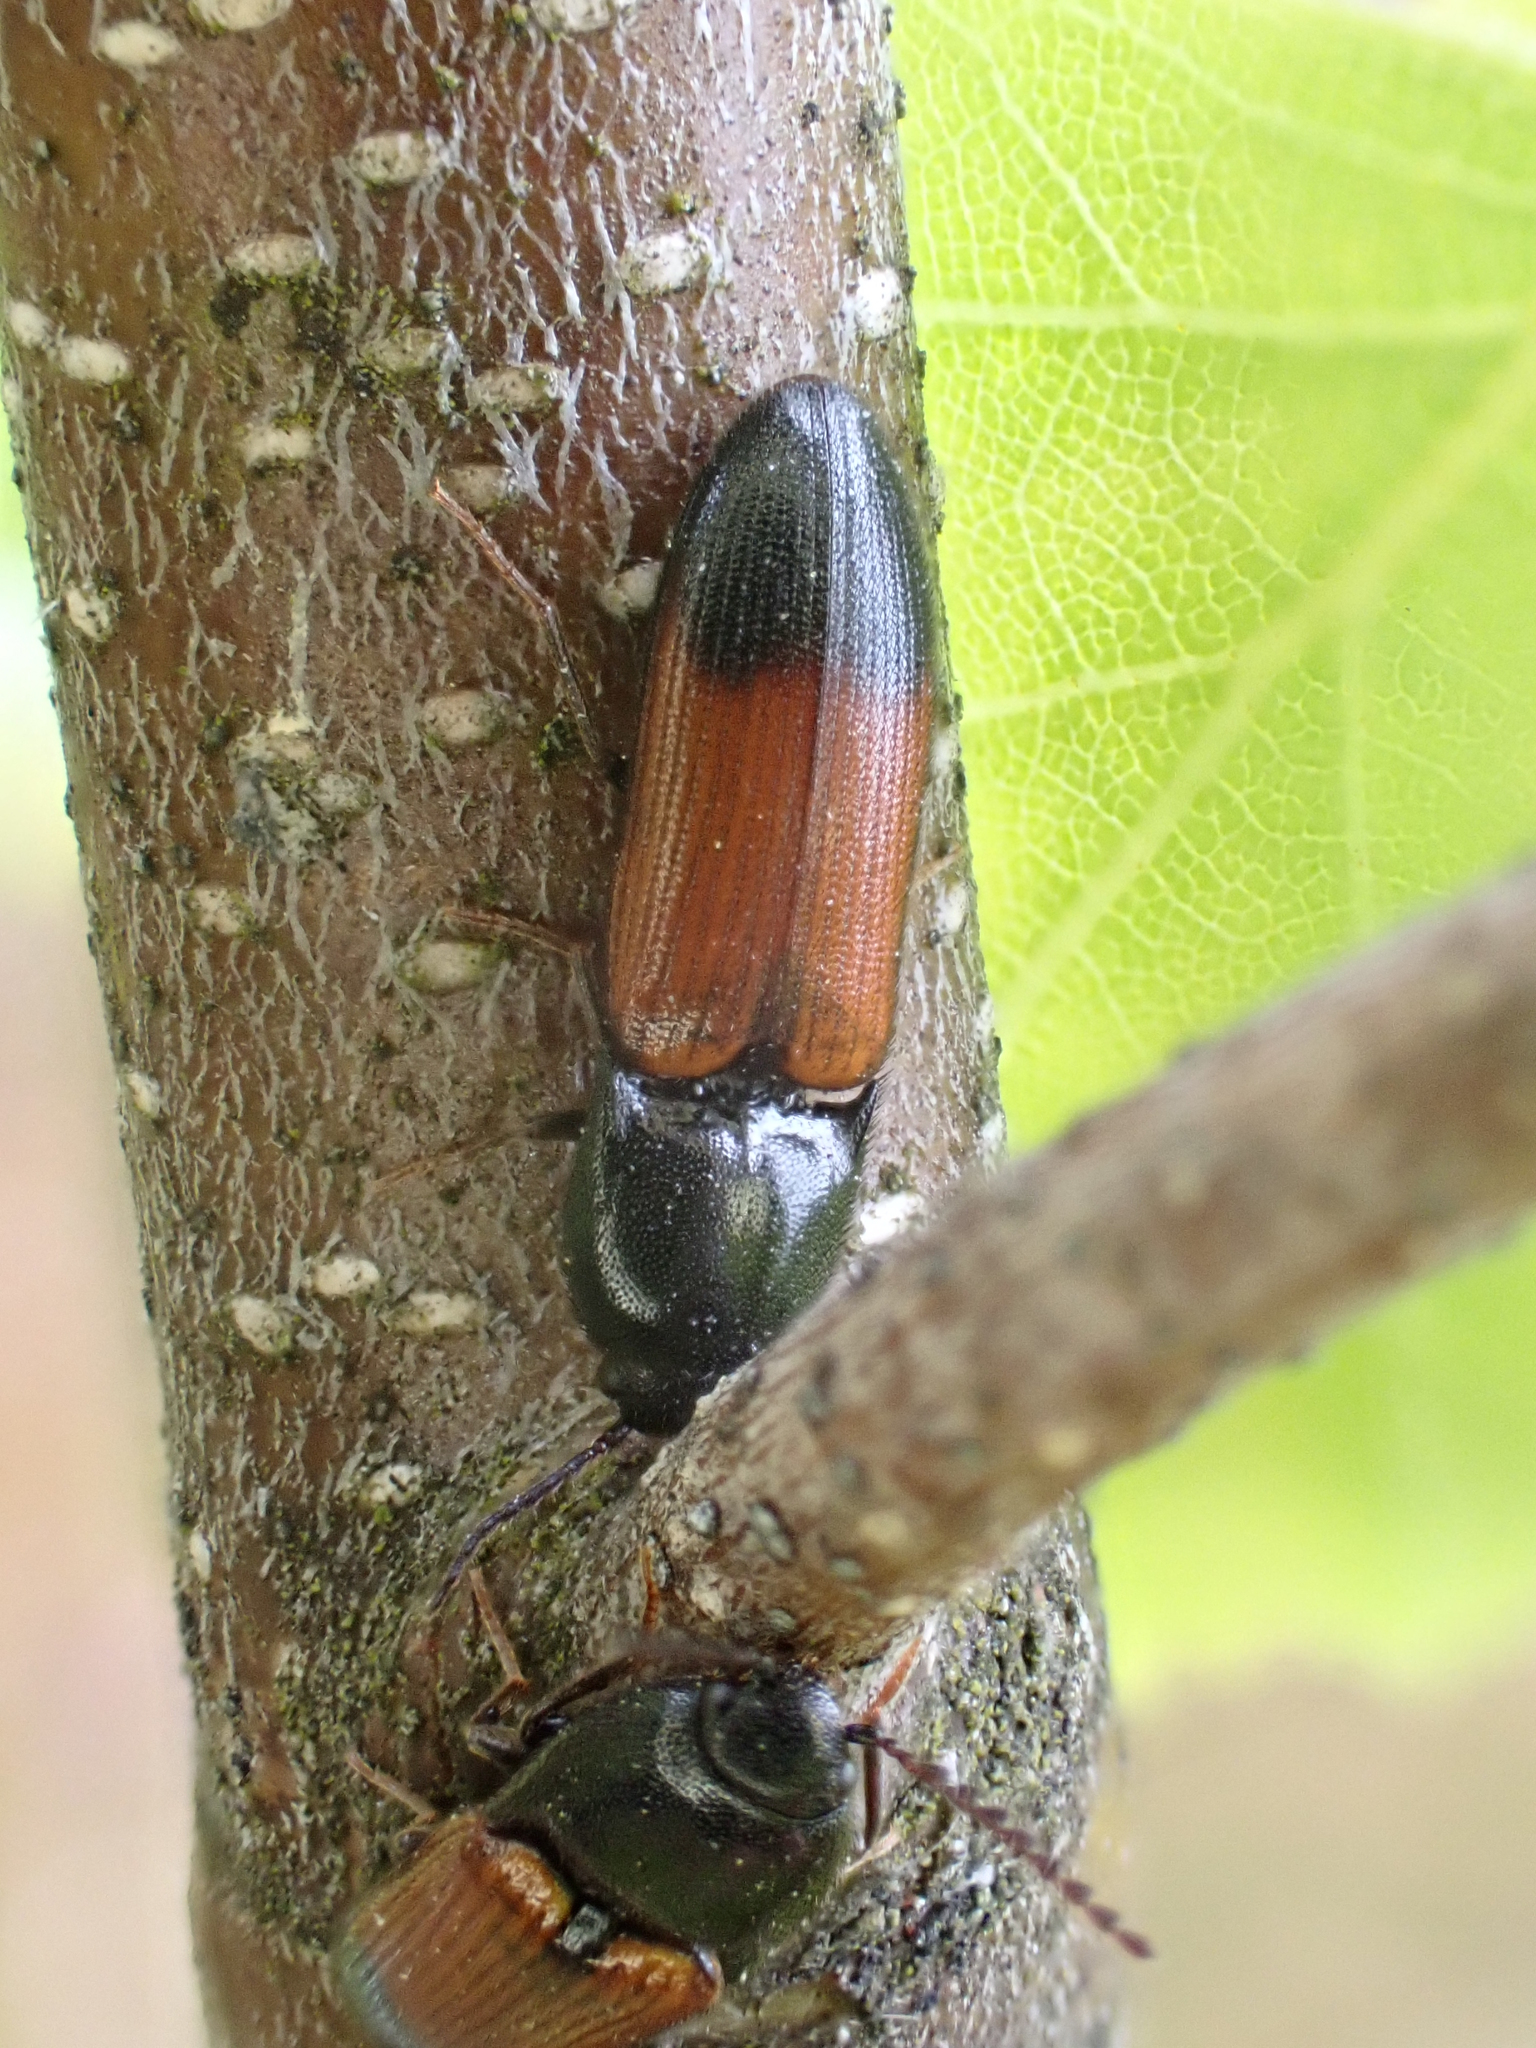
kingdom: Animalia
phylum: Arthropoda
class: Insecta
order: Coleoptera
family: Elateridae
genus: Ampedus
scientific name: Ampedus balteatus
